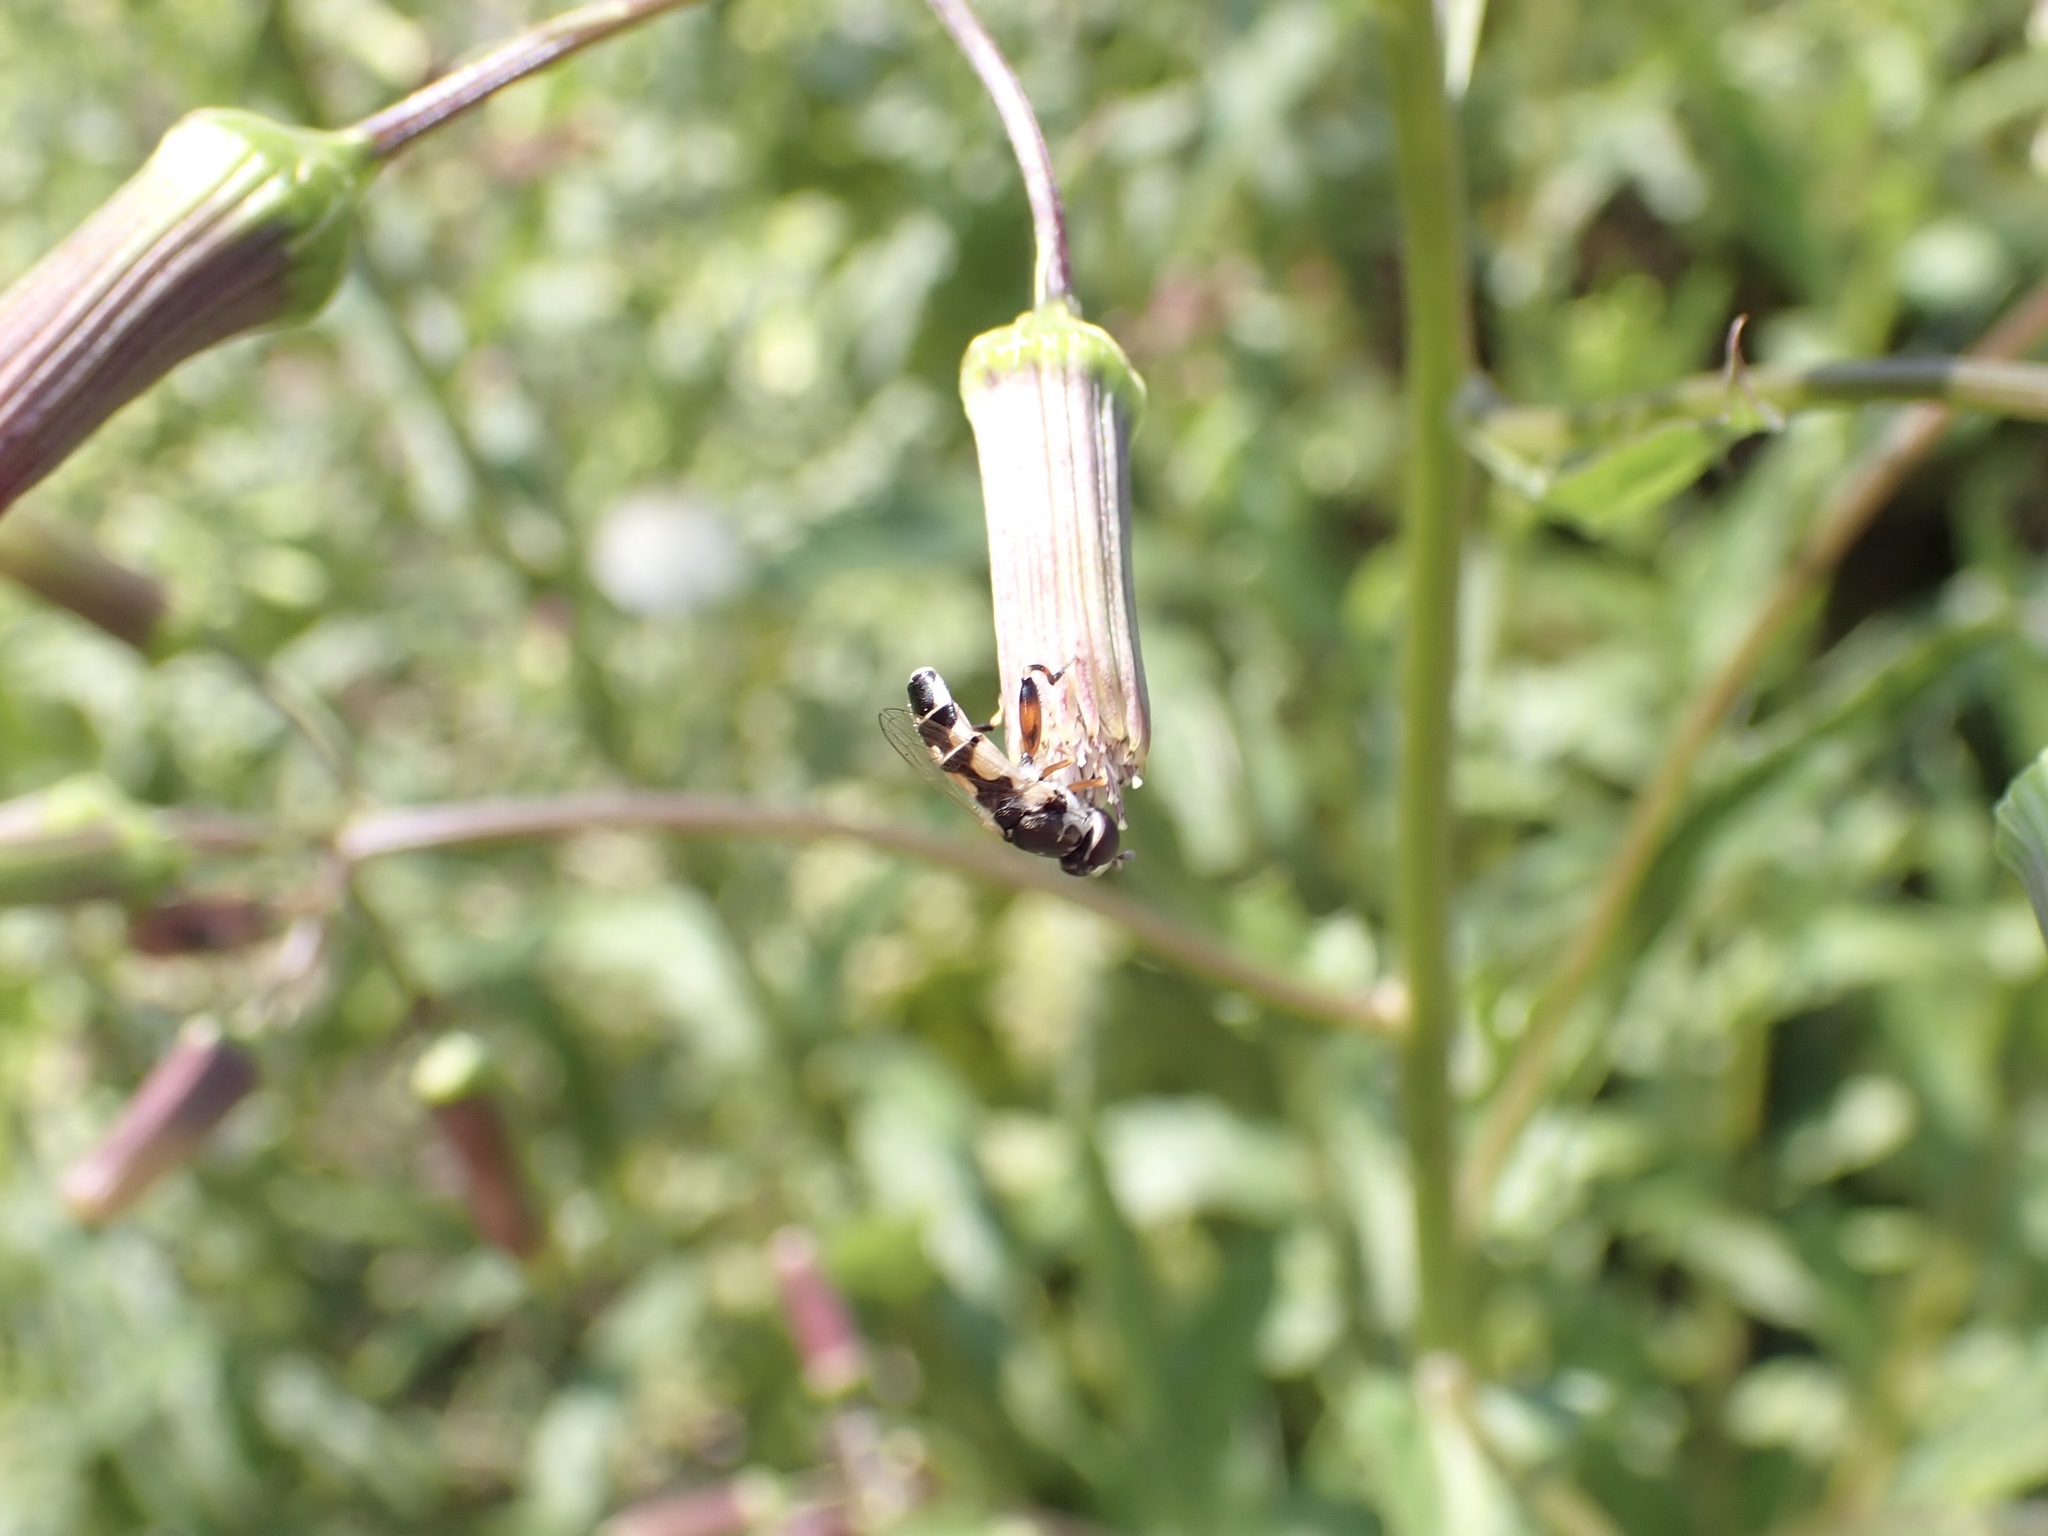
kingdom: Animalia
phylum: Arthropoda
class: Insecta
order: Diptera
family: Syrphidae
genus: Syritta
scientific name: Syritta flaviventris
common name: Syrphid fly
